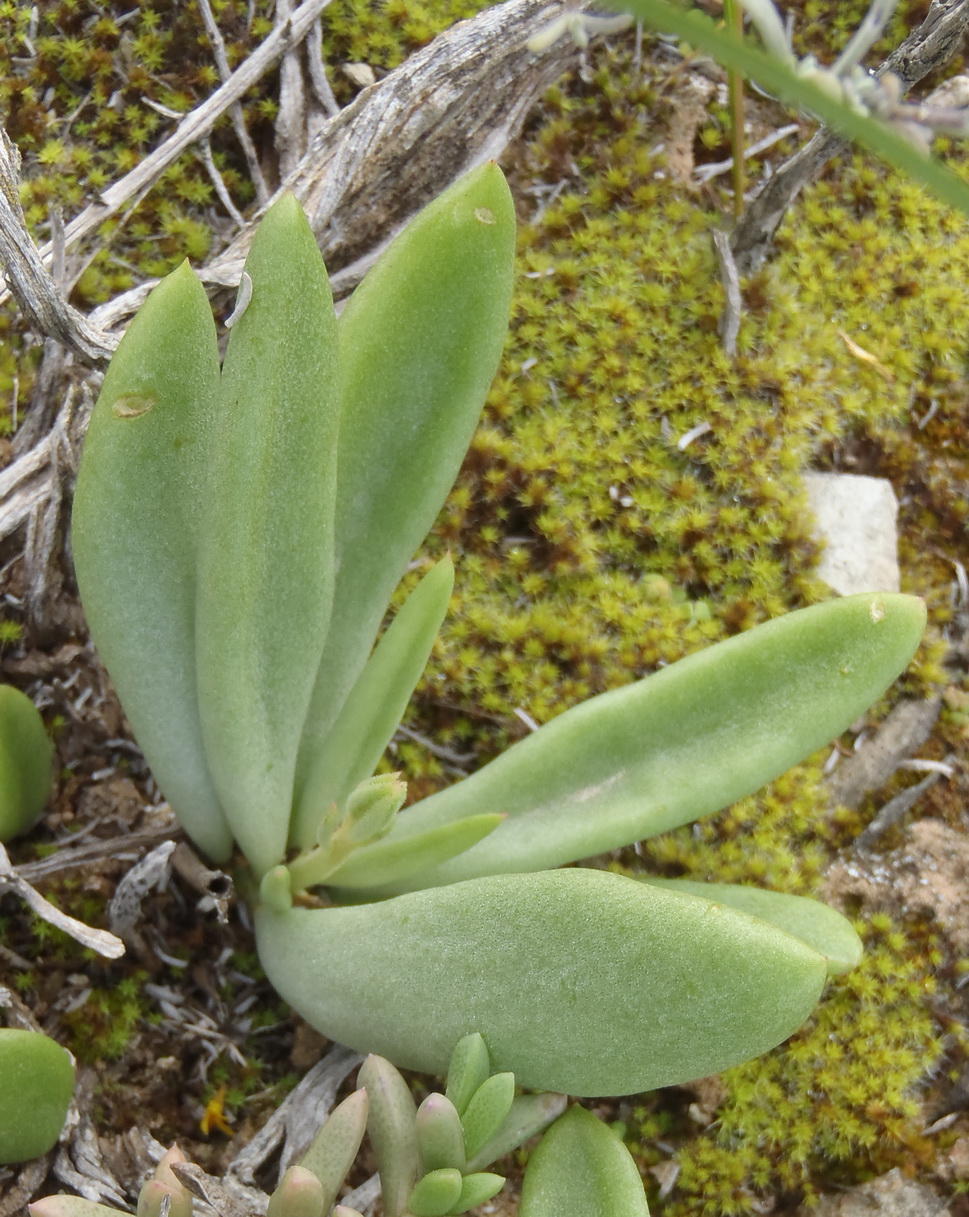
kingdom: Plantae
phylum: Tracheophyta
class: Magnoliopsida
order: Saxifragales
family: Crassulaceae
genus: Tylecodon
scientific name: Tylecodon ventricosus
